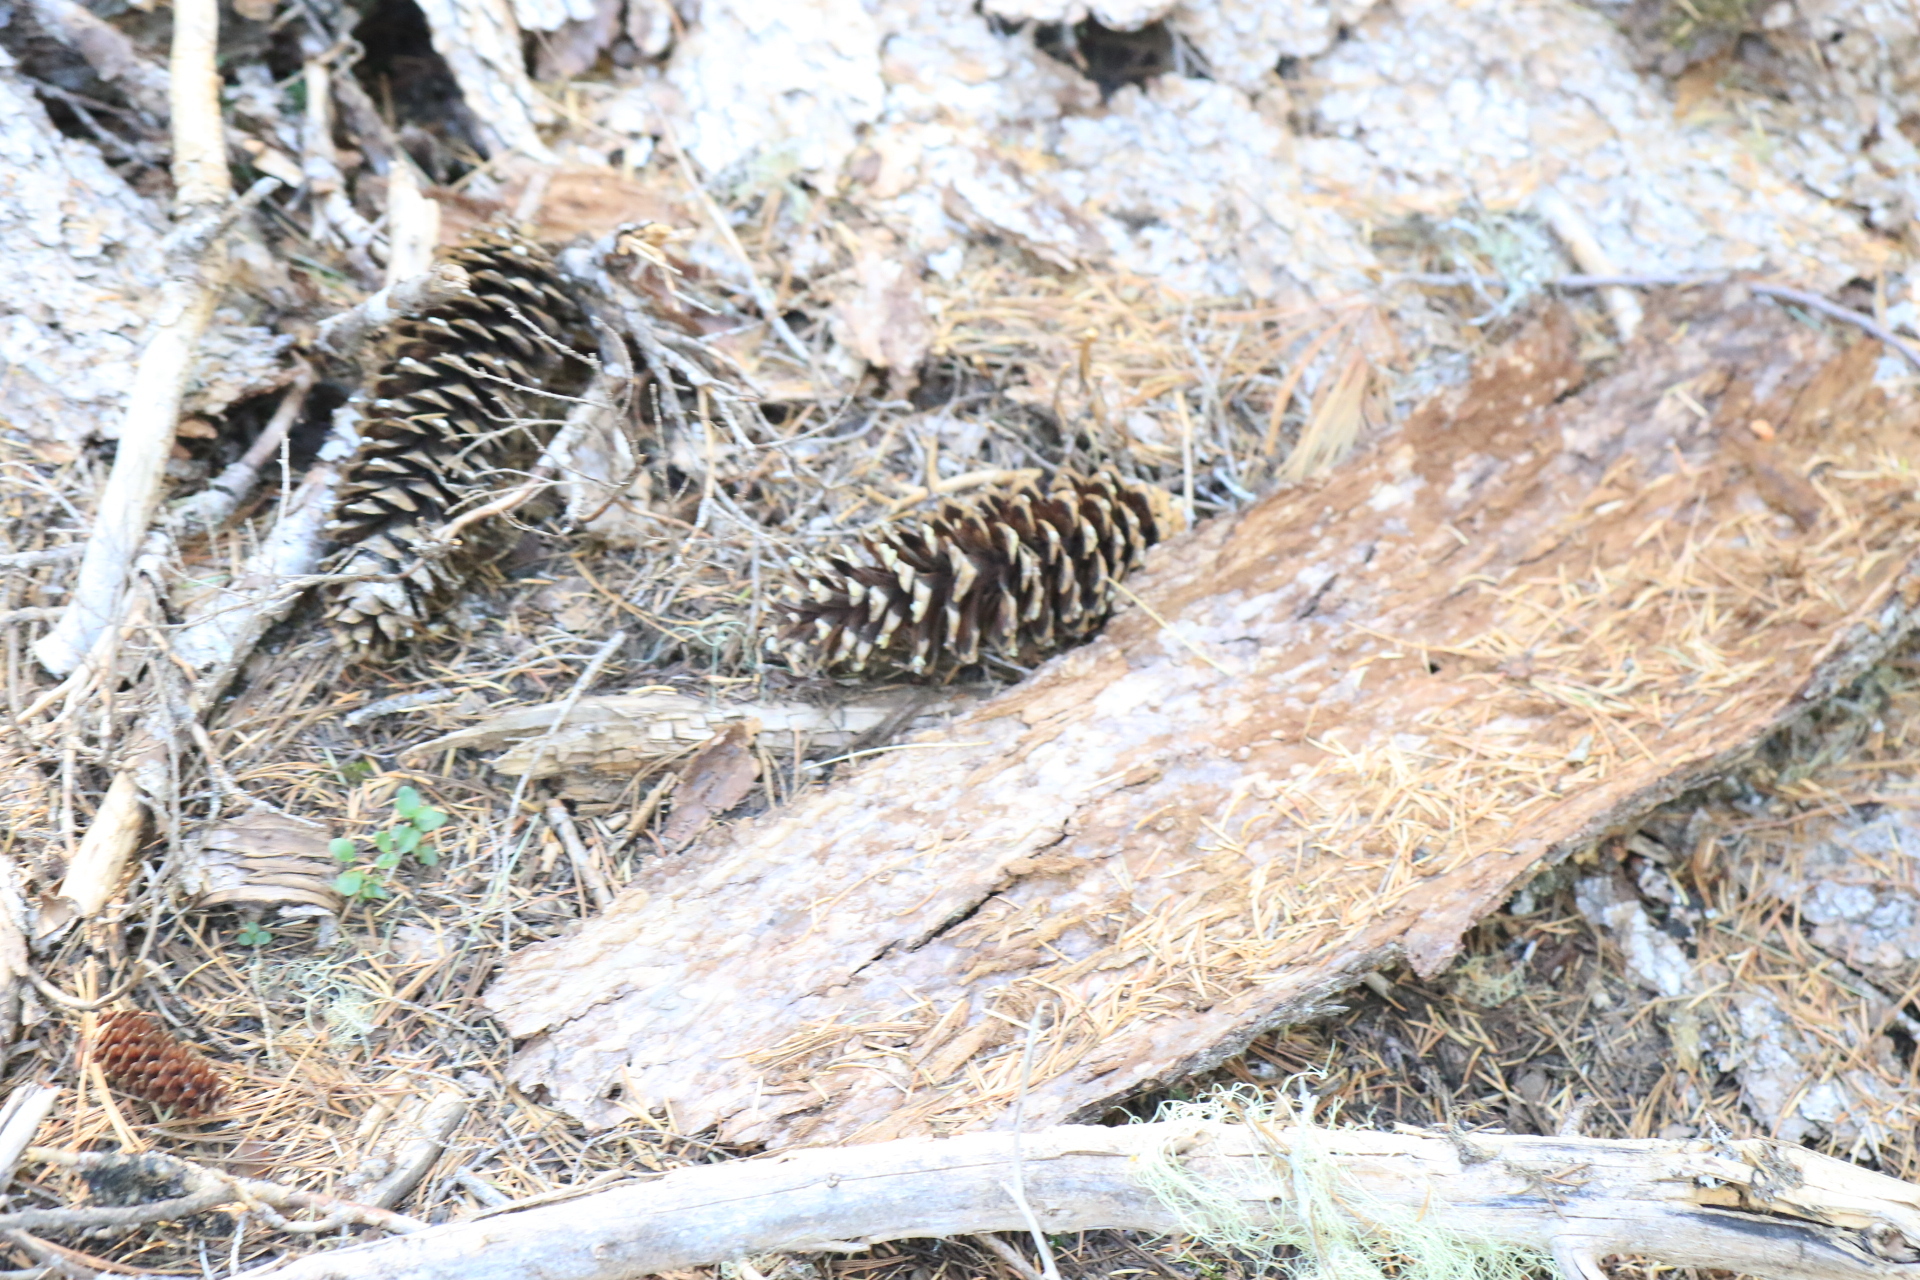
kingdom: Plantae
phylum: Tracheophyta
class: Pinopsida
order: Pinales
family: Pinaceae
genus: Pinus
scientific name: Pinus monticola
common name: Western white pine
